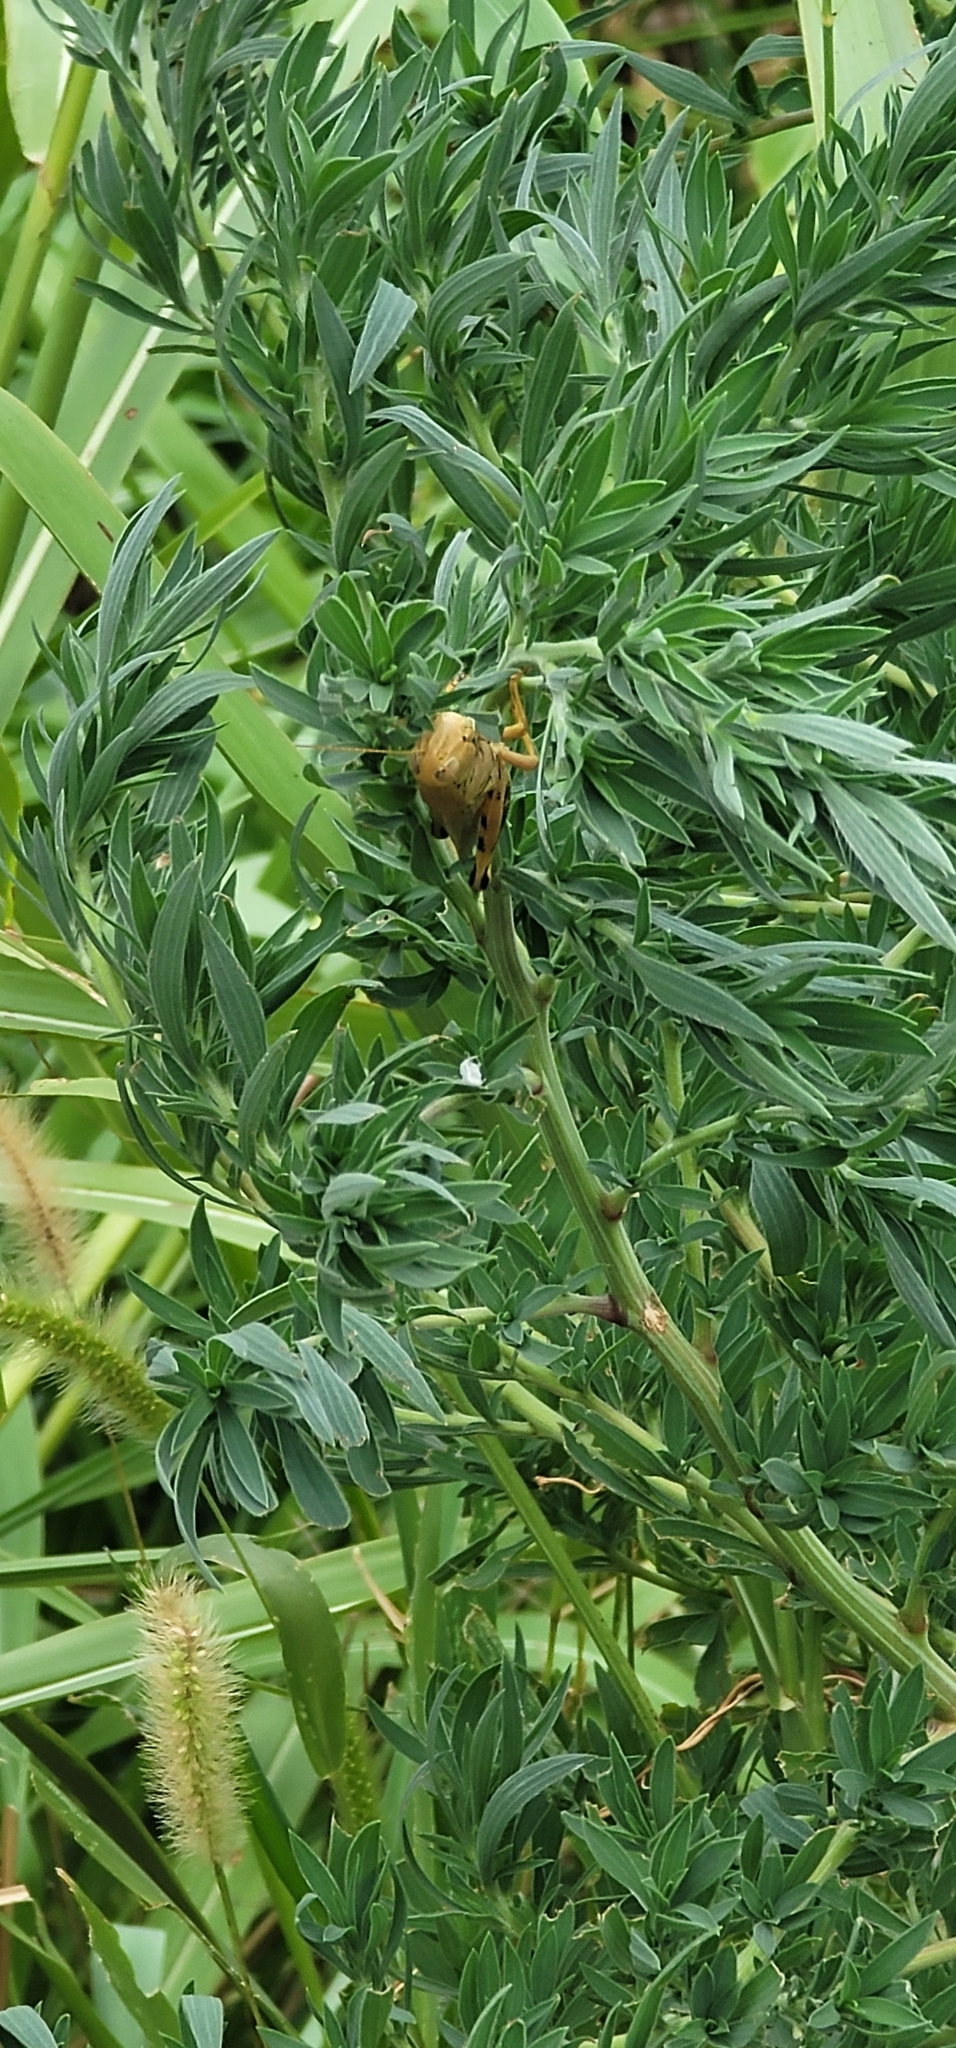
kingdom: Animalia
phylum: Arthropoda
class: Insecta
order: Orthoptera
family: Acrididae
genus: Melanoplus
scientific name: Melanoplus differentialis
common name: Differential grasshopper
